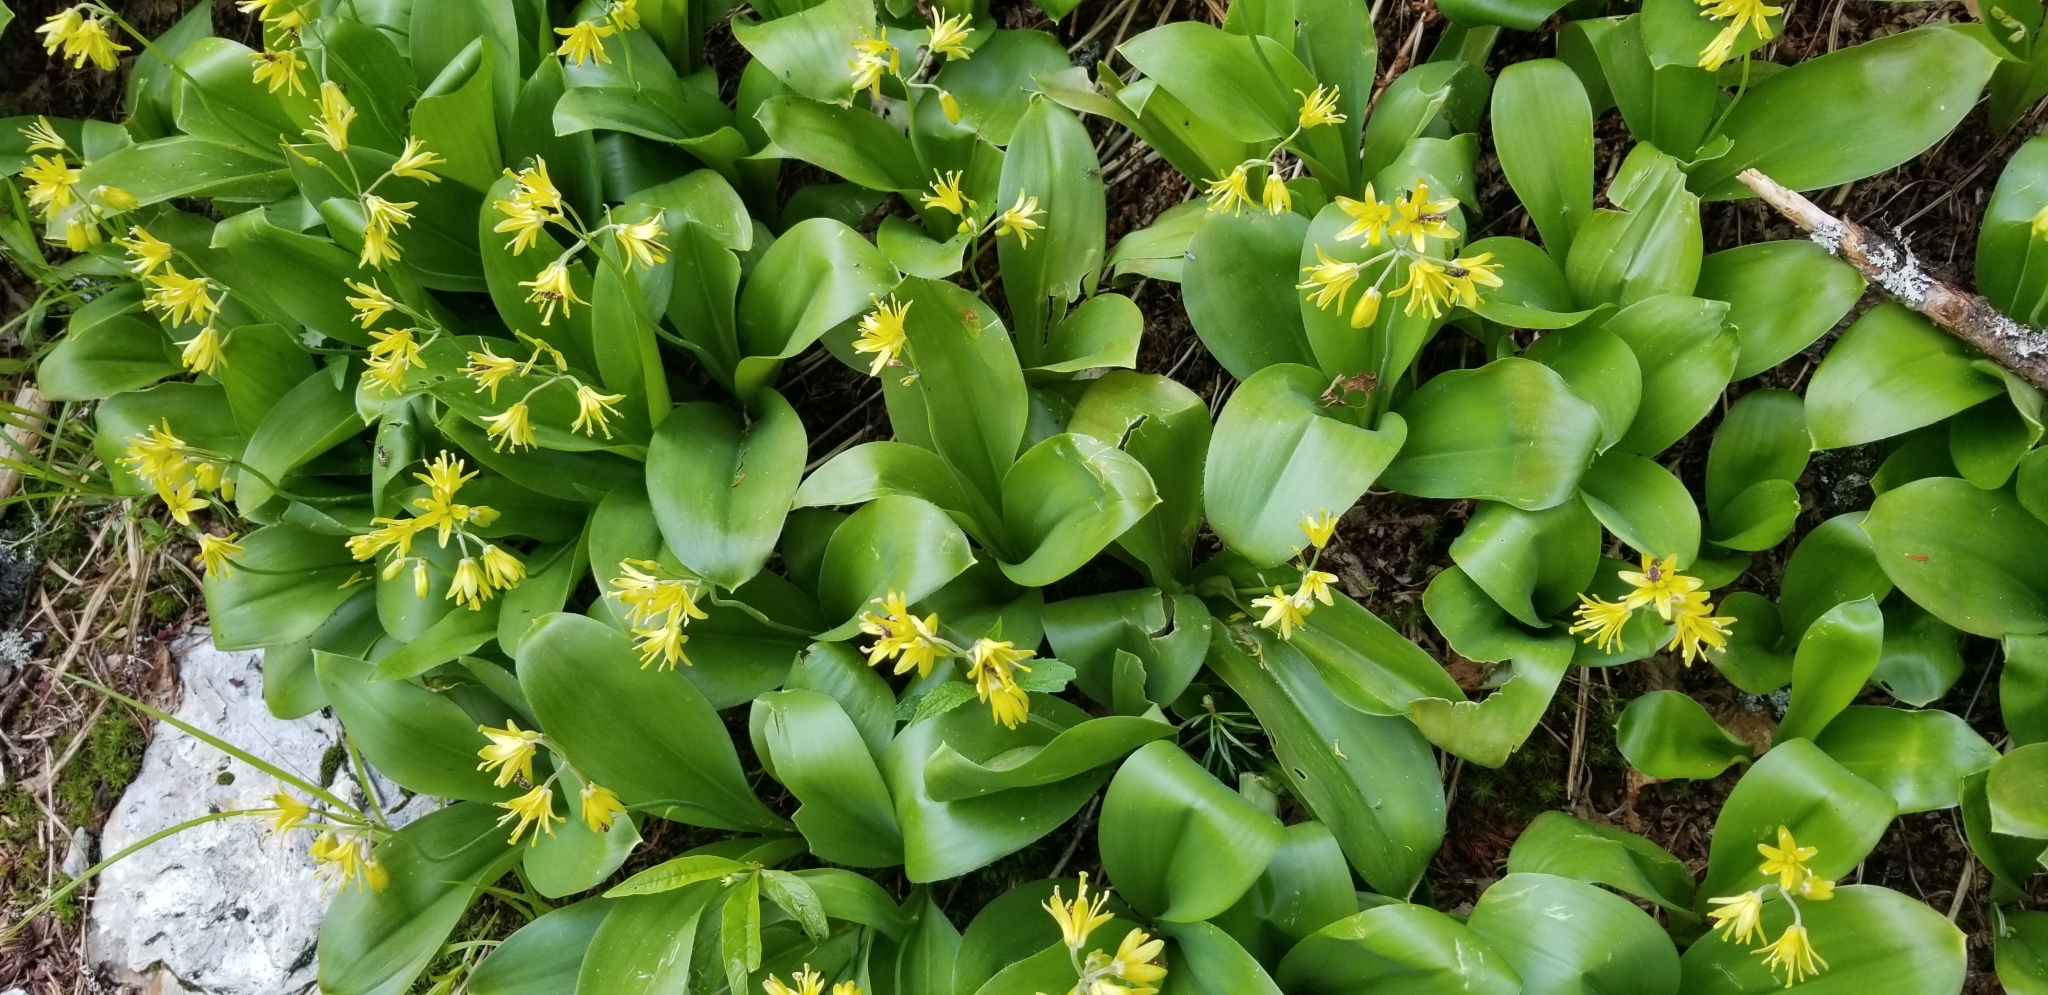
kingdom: Plantae
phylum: Tracheophyta
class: Liliopsida
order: Liliales
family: Liliaceae
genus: Clintonia
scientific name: Clintonia borealis
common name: Yellow clintonia
